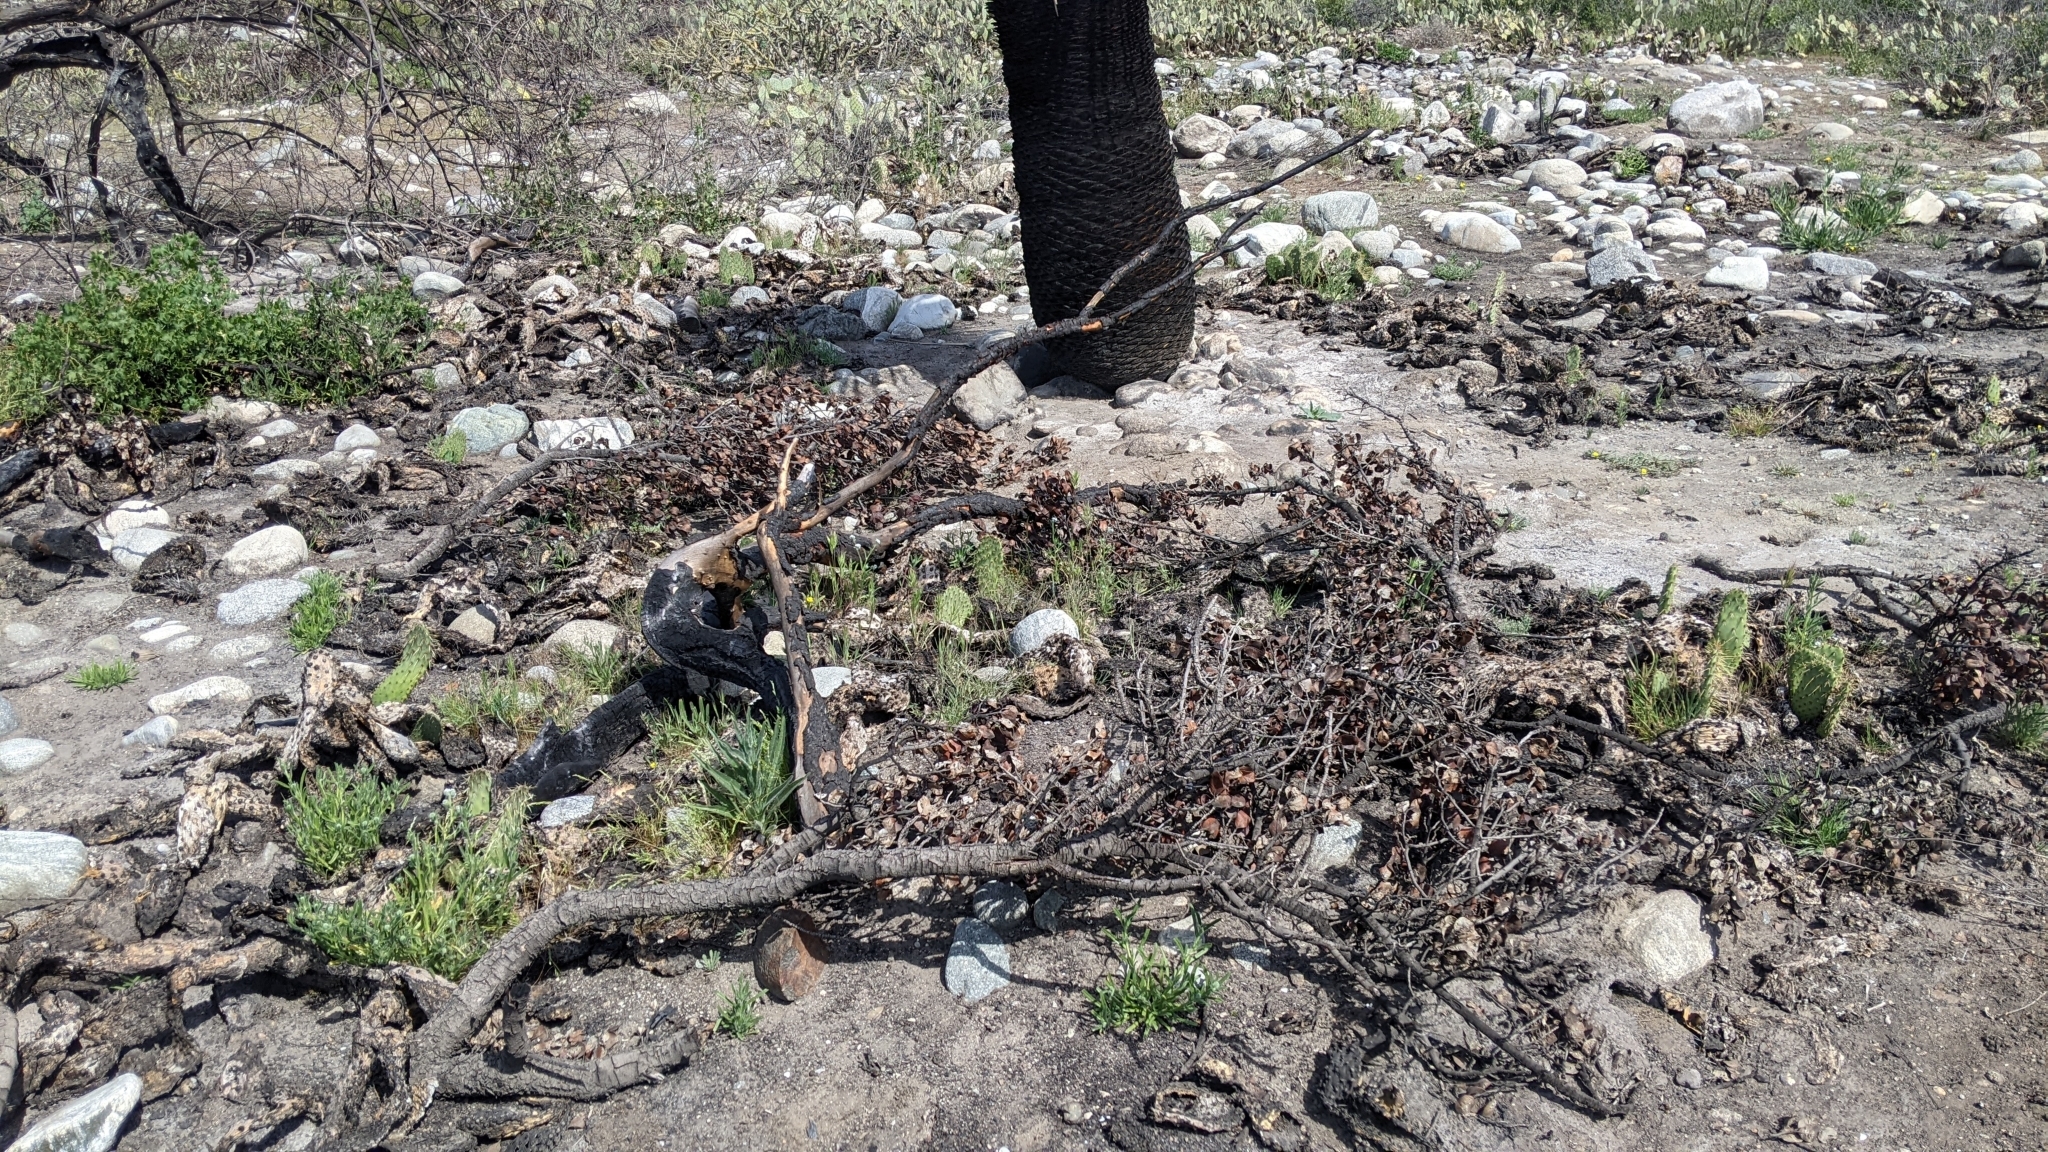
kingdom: Plantae
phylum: Tracheophyta
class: Liliopsida
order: Asparagales
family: Asparagaceae
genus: Hesperoyucca
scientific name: Hesperoyucca whipplei
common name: Our lord's-candle
